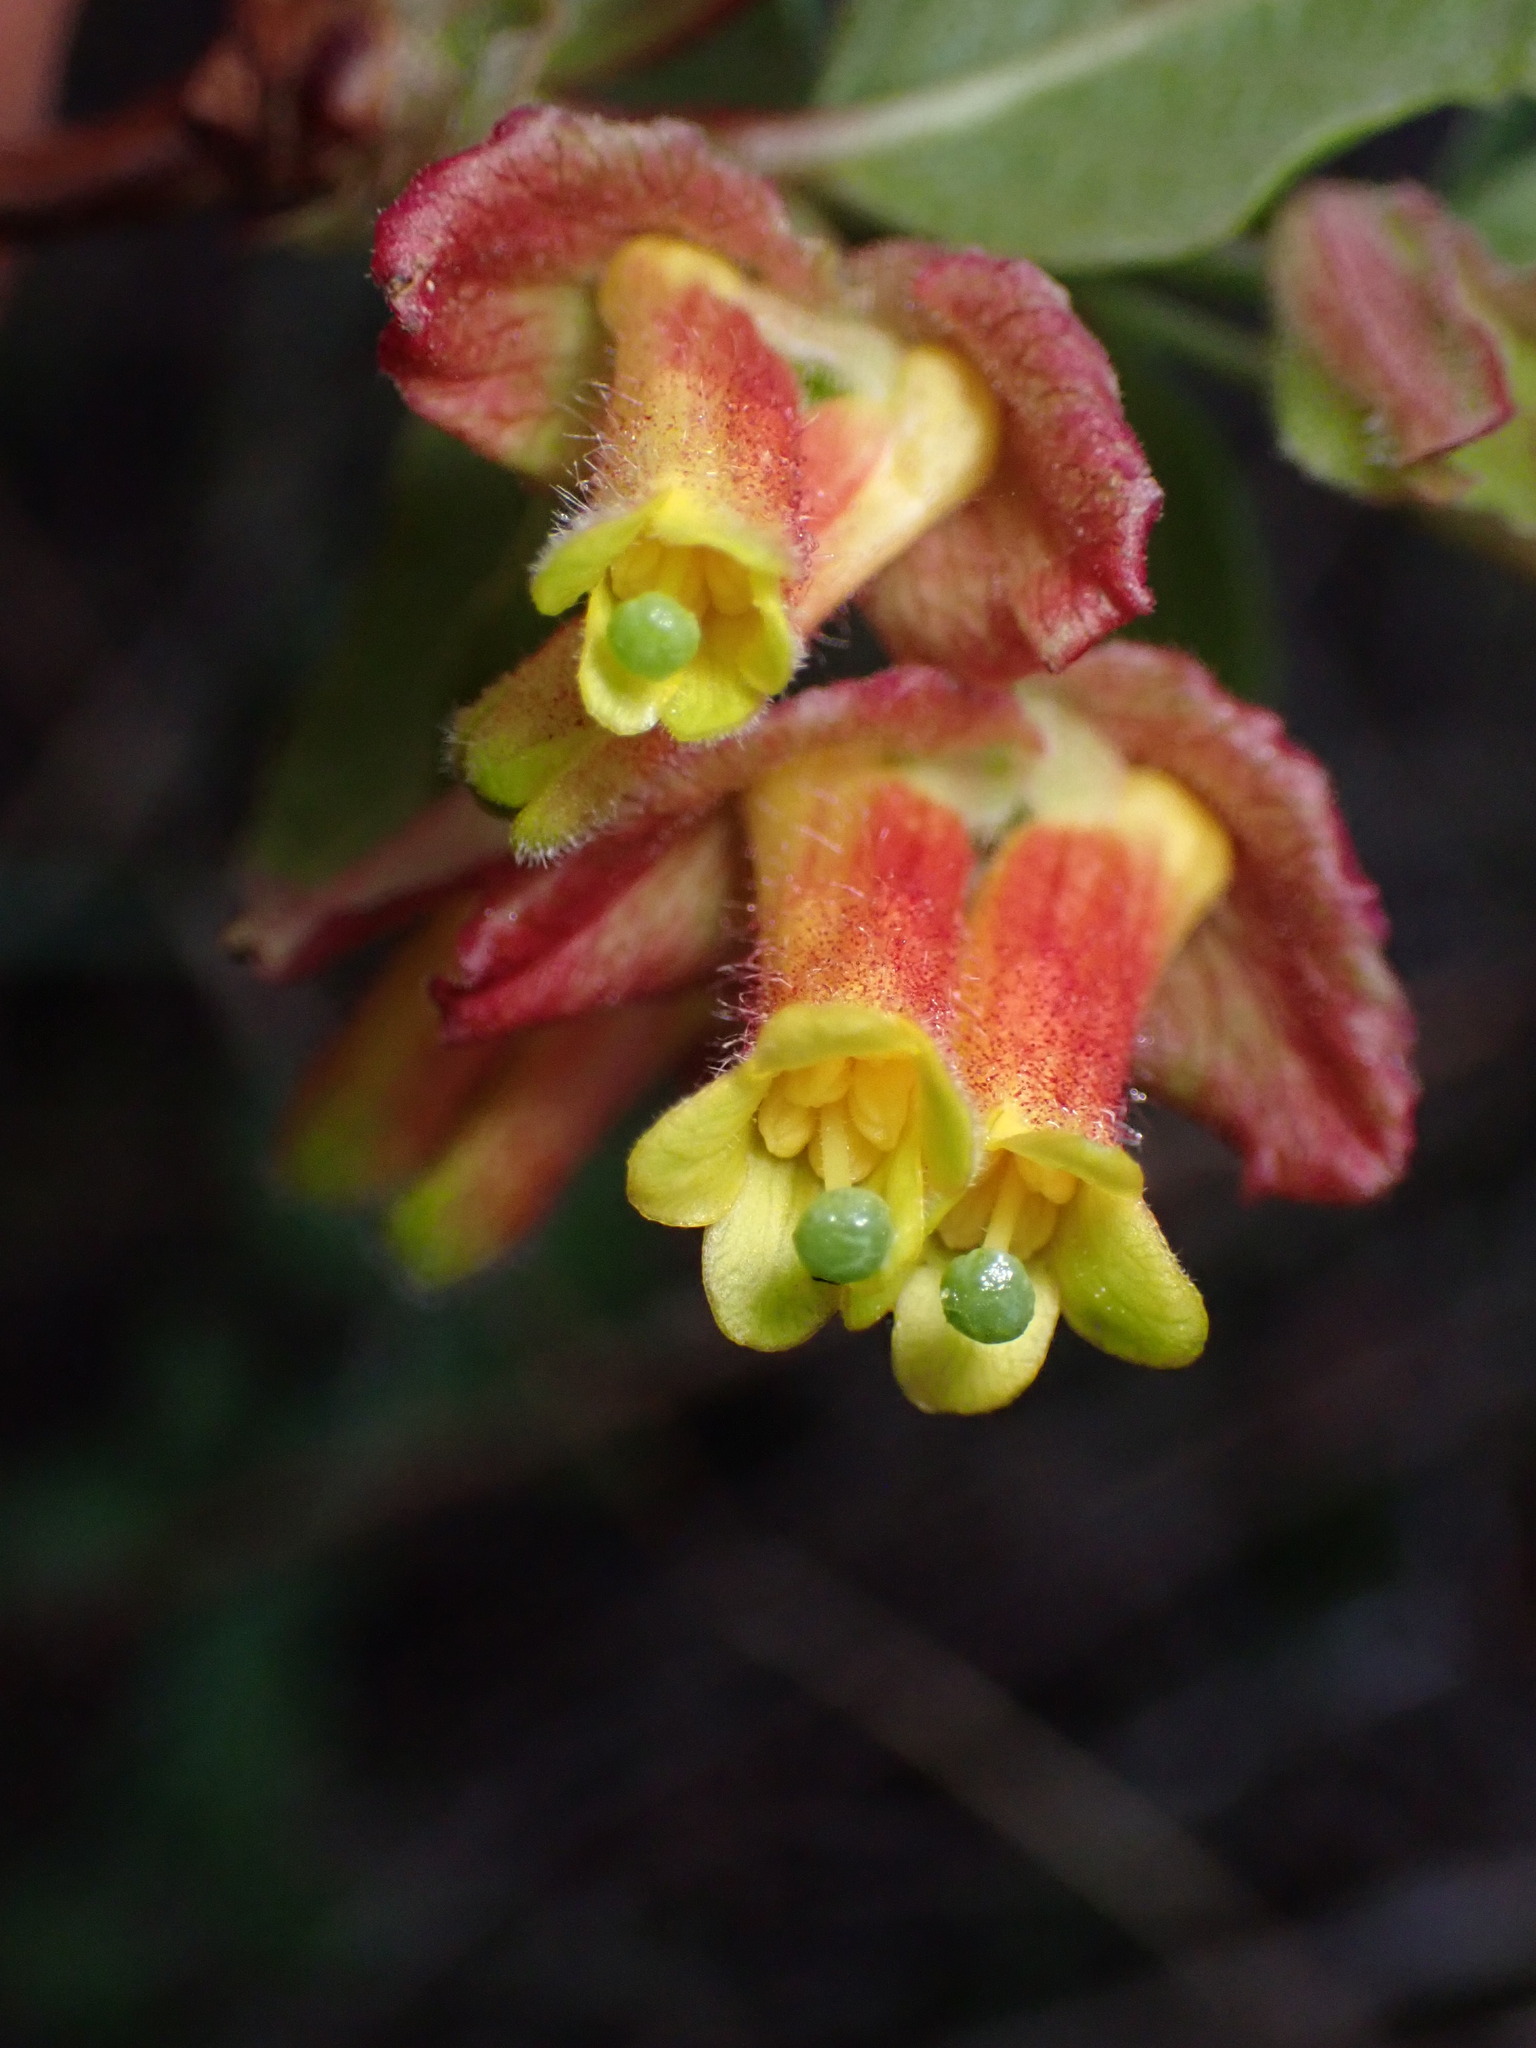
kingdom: Plantae
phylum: Tracheophyta
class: Magnoliopsida
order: Dipsacales
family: Caprifoliaceae
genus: Lonicera
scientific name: Lonicera involucrata
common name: Californian honeysuckle
